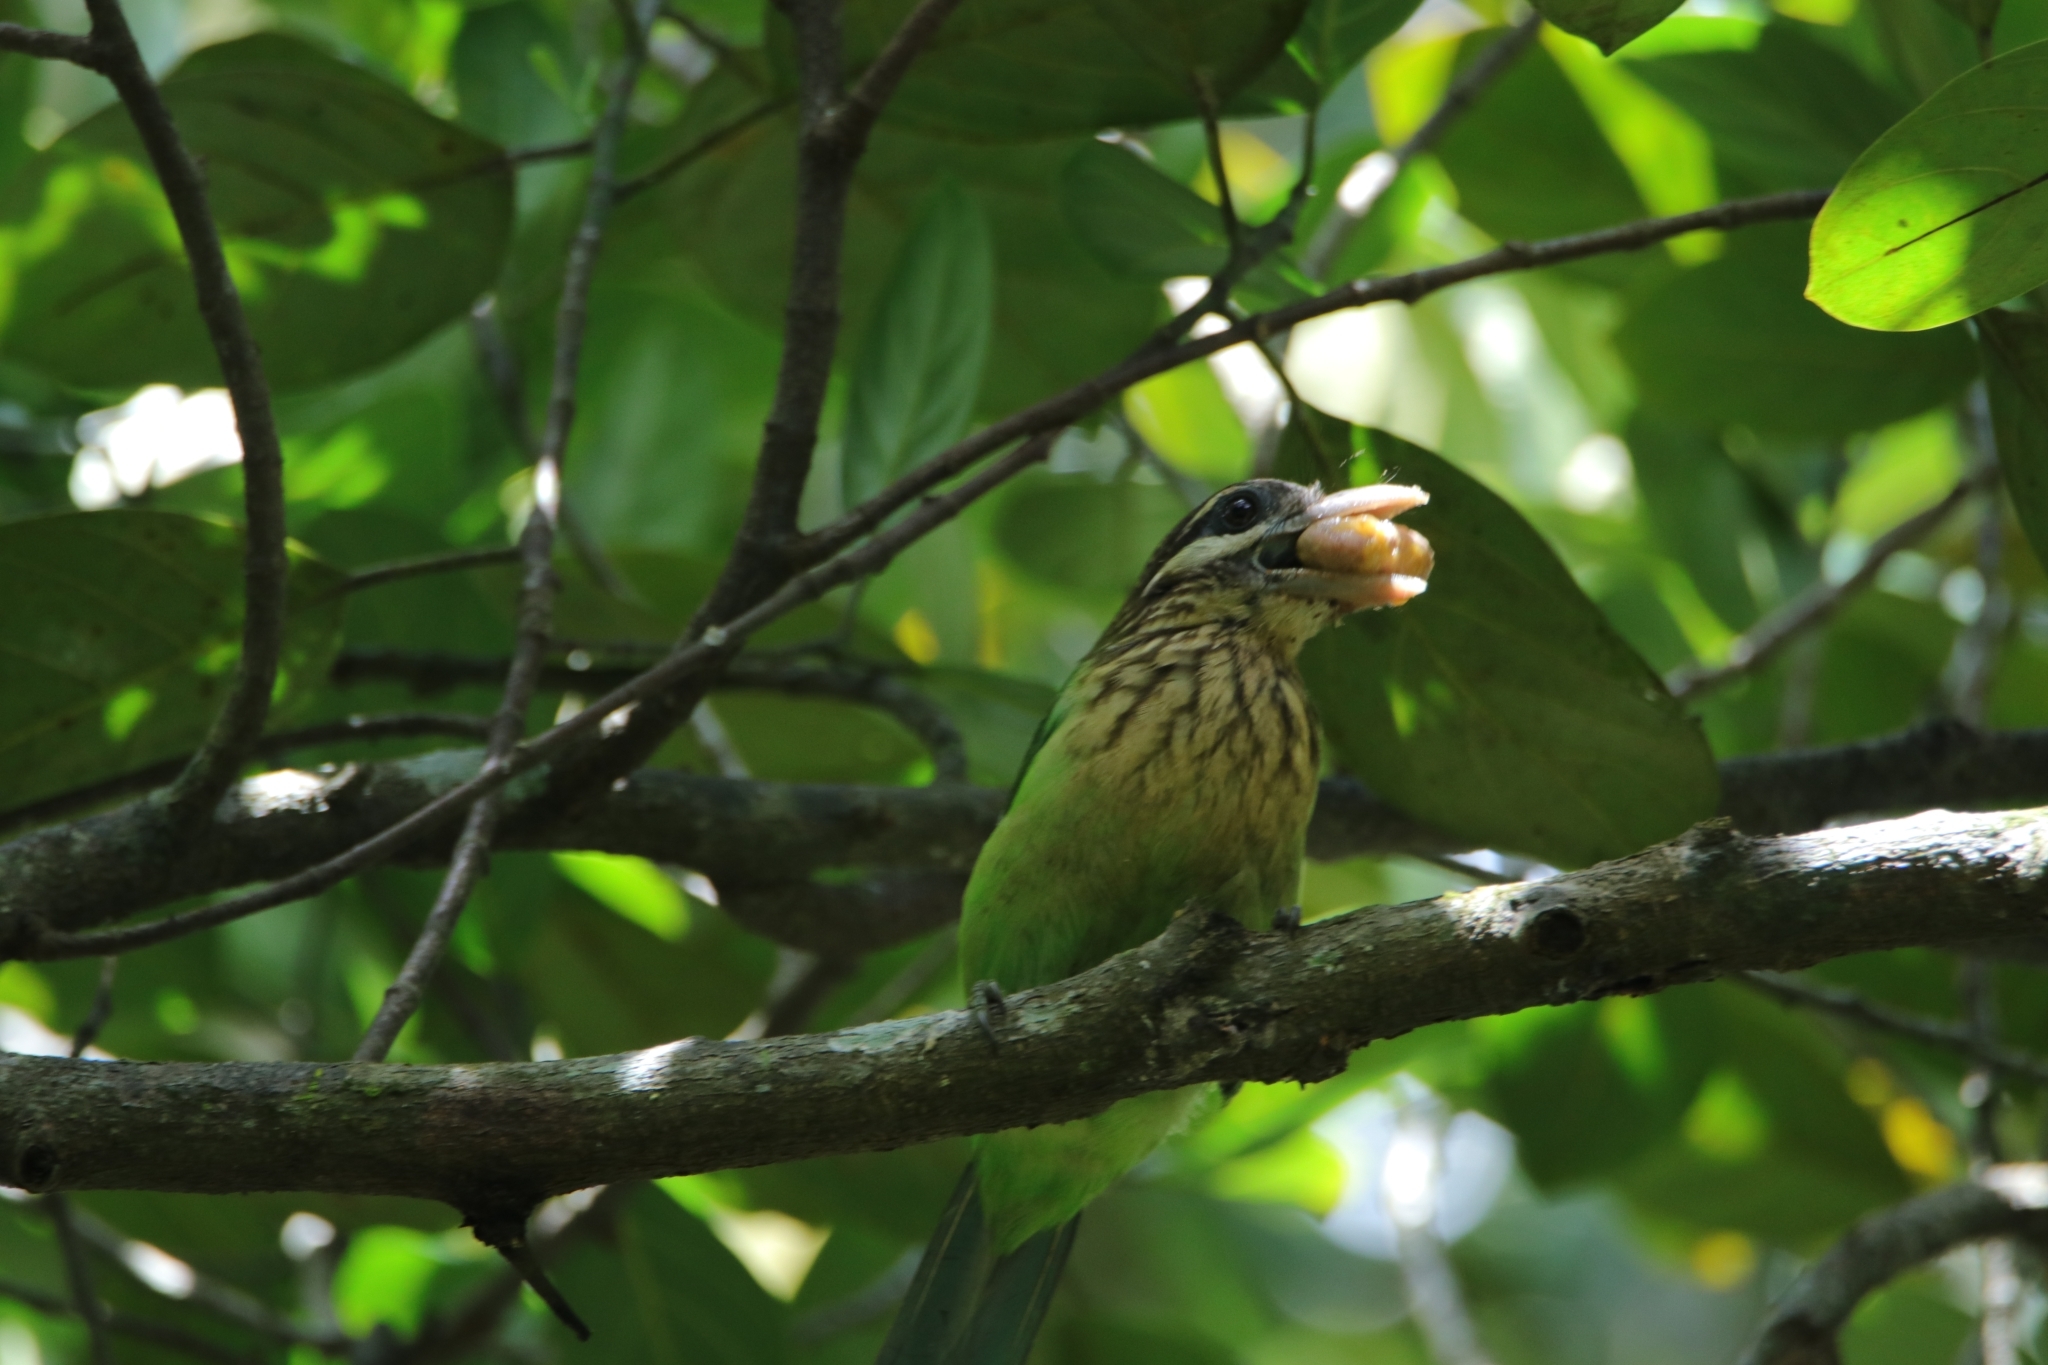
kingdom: Animalia
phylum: Chordata
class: Aves
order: Piciformes
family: Megalaimidae
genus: Psilopogon
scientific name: Psilopogon viridis
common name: White-cheeked barbet
